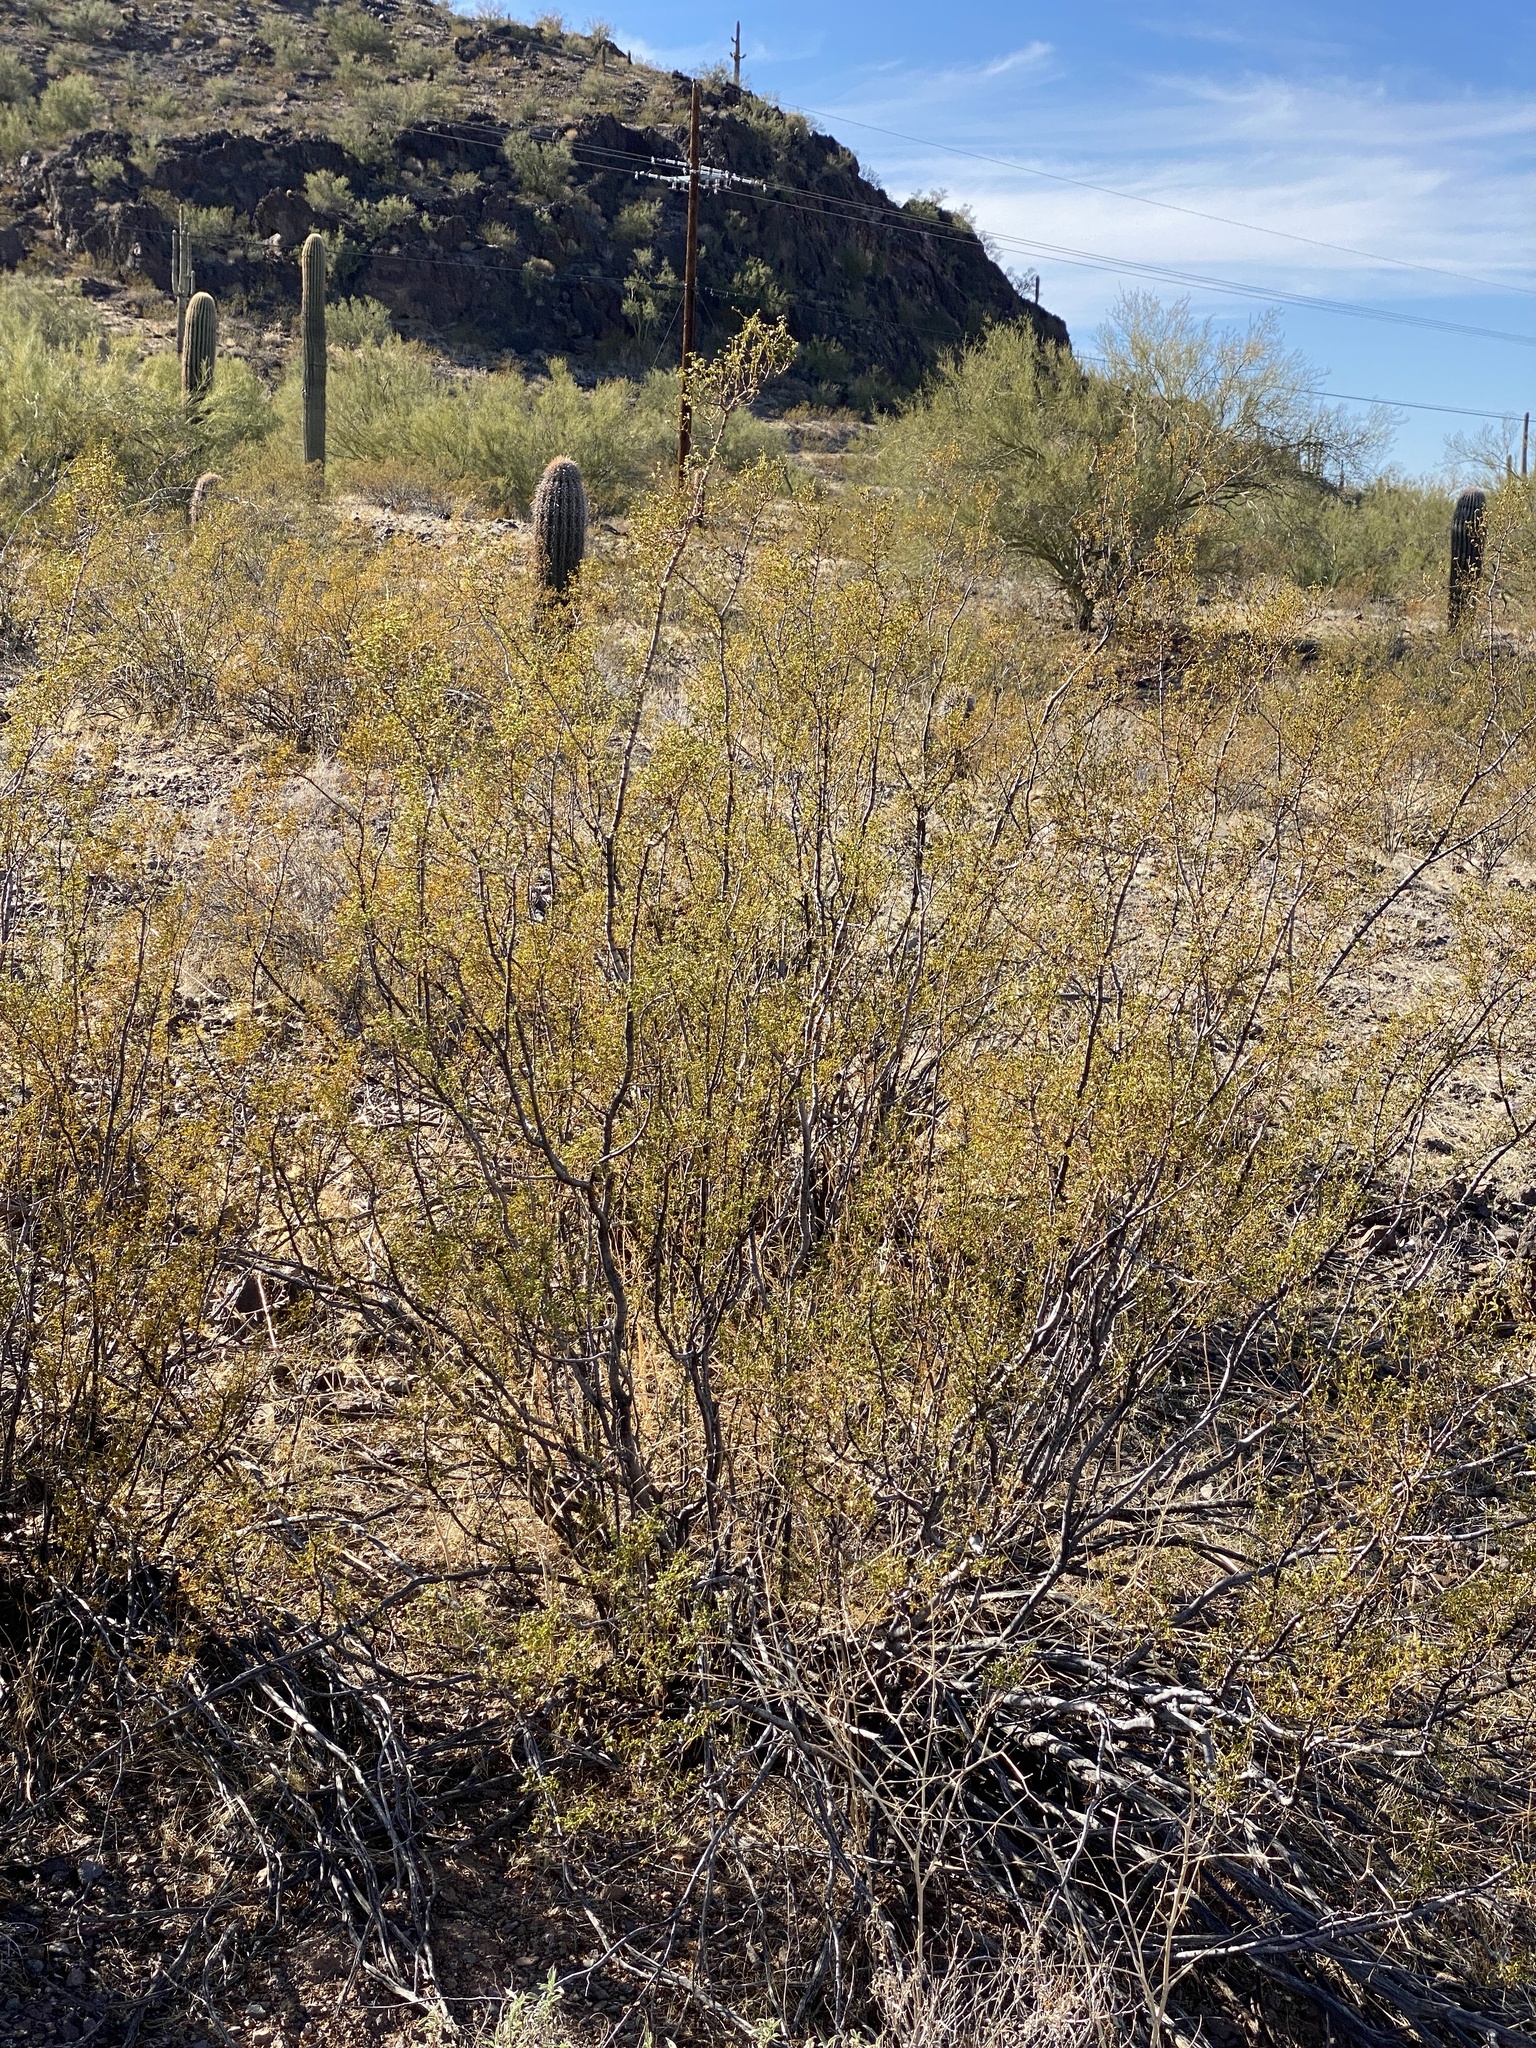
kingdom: Plantae
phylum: Tracheophyta
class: Magnoliopsida
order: Zygophyllales
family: Zygophyllaceae
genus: Larrea
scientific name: Larrea tridentata
